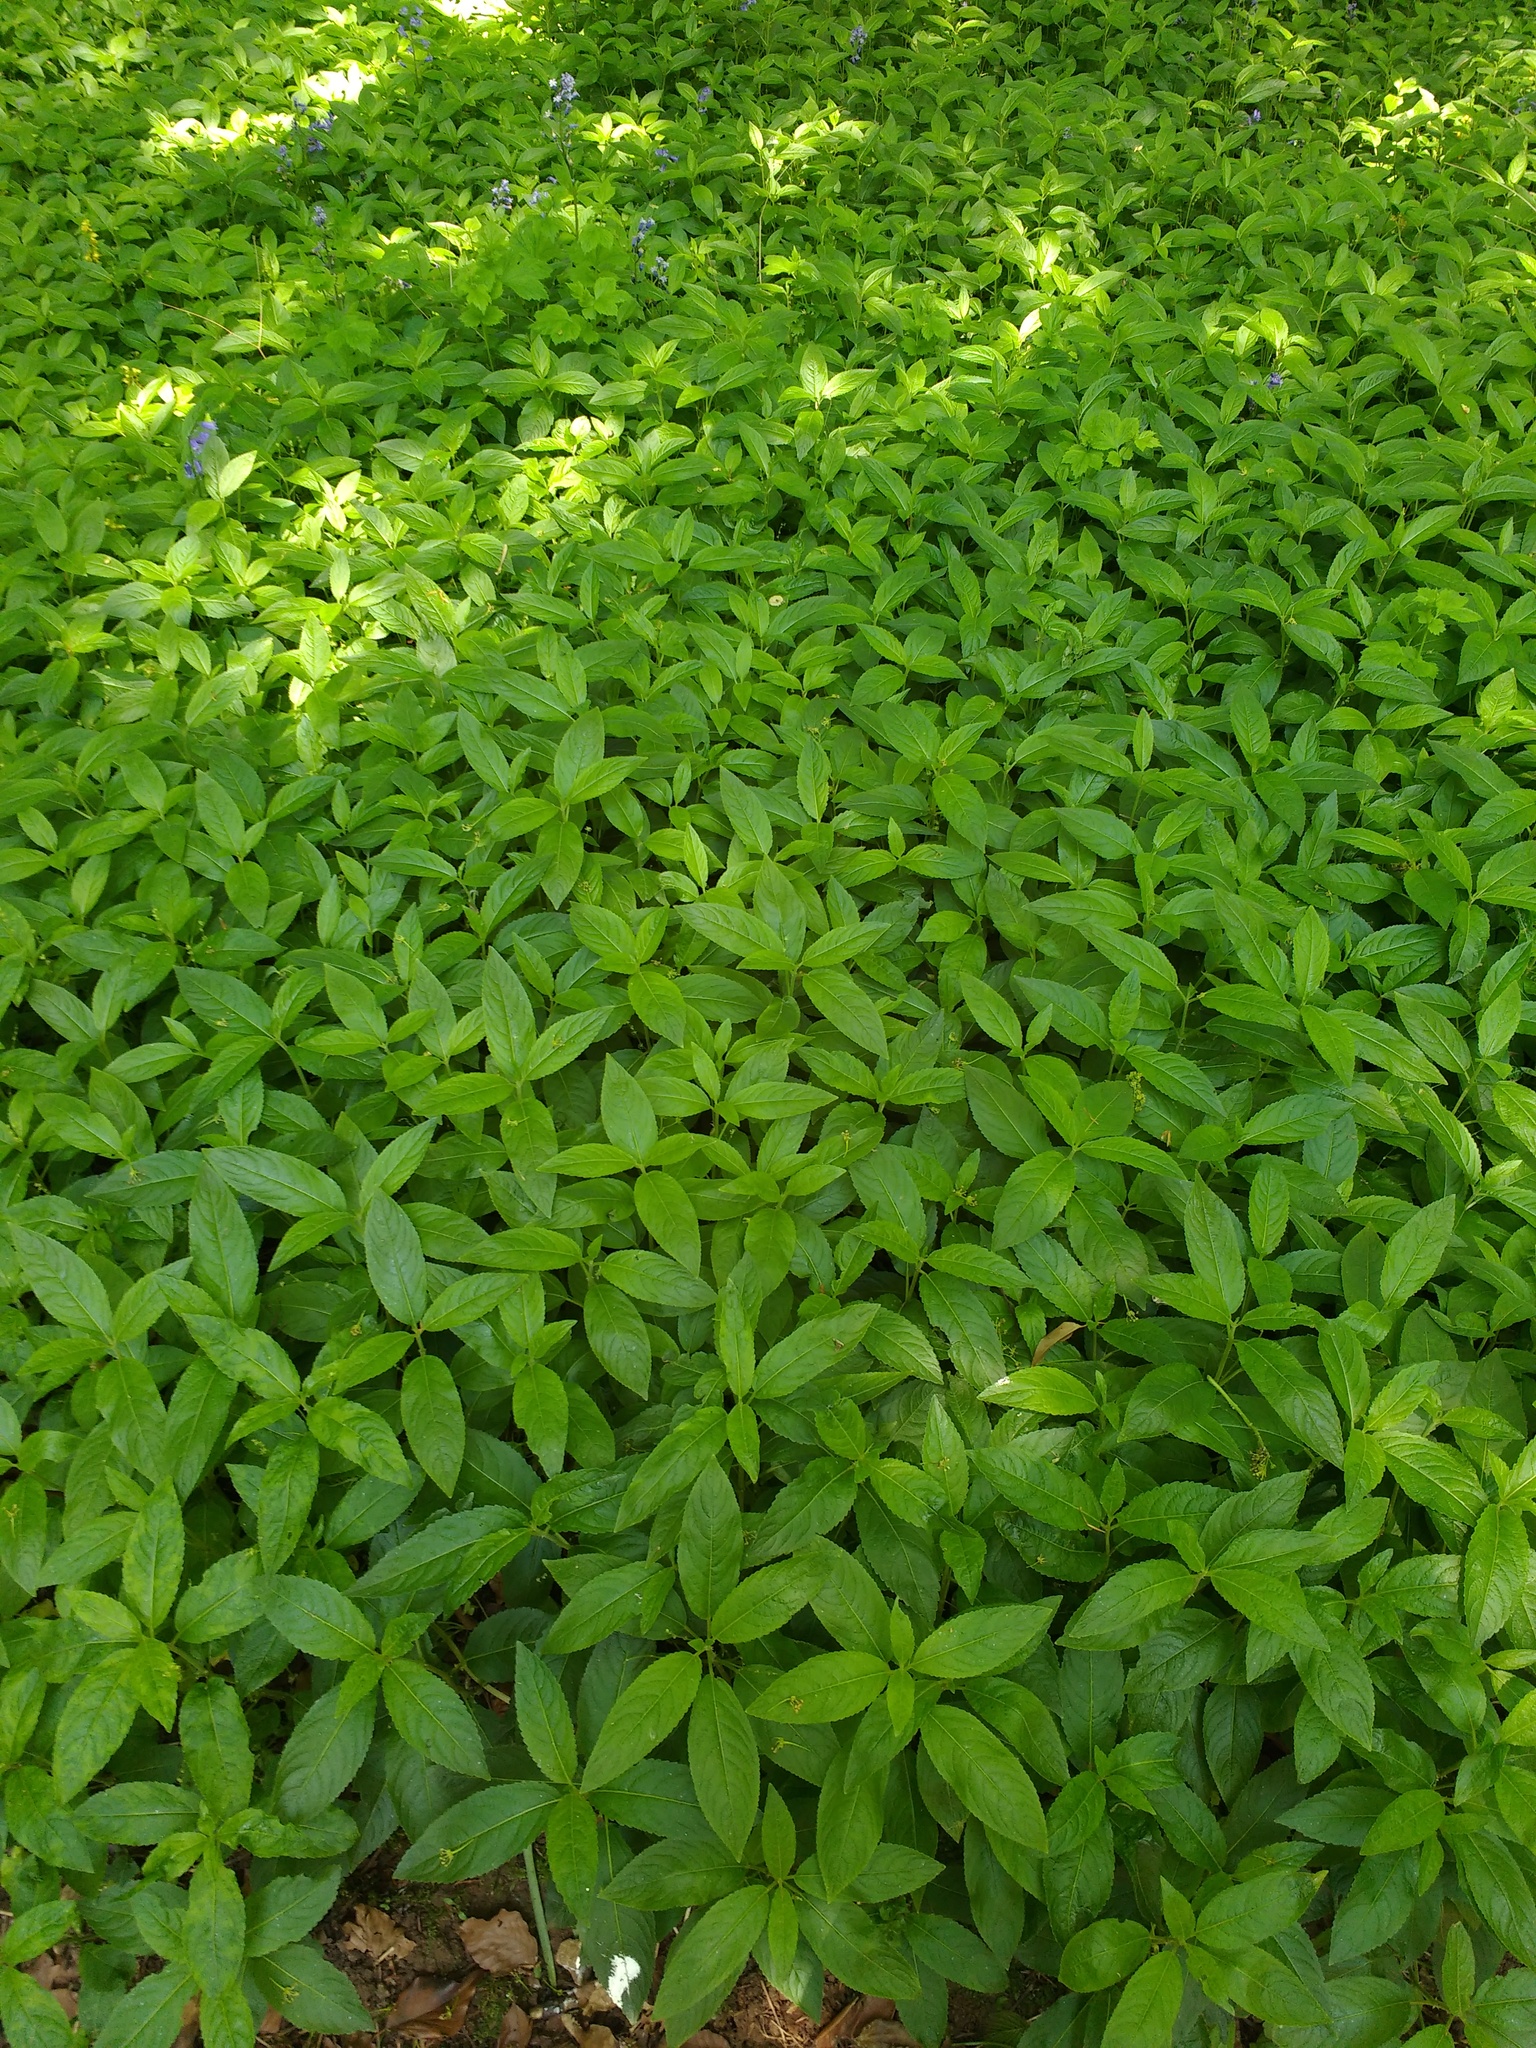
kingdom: Plantae
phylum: Tracheophyta
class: Magnoliopsida
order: Malpighiales
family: Euphorbiaceae
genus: Mercurialis
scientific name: Mercurialis perennis
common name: Dog mercury
